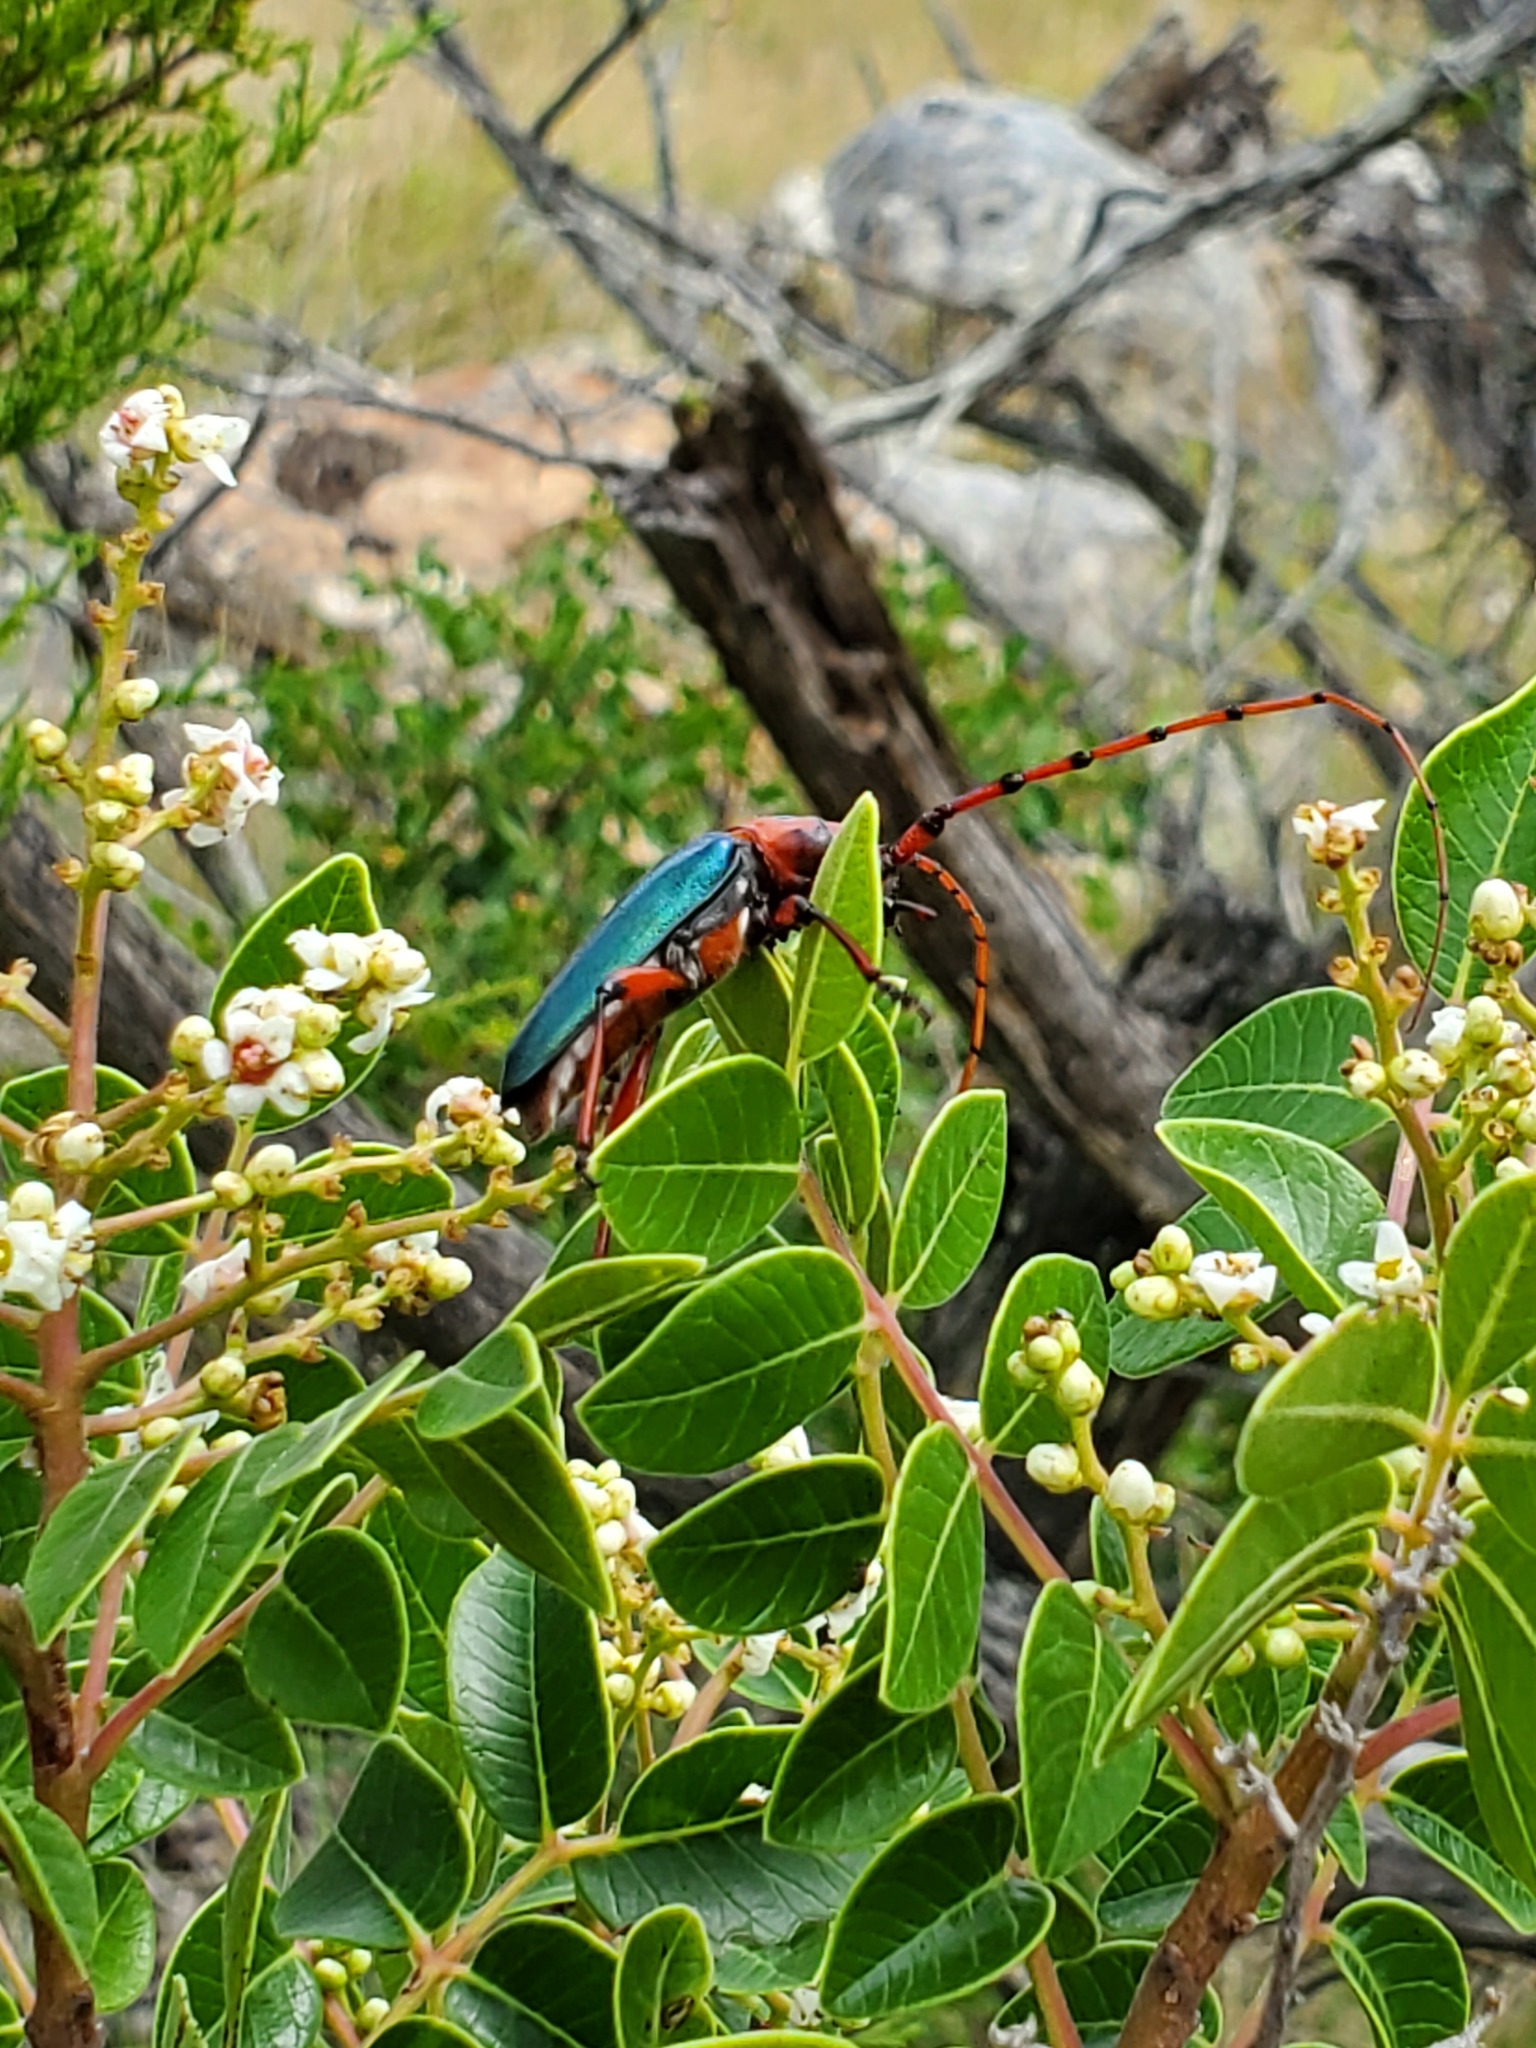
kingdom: Animalia
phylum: Arthropoda
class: Insecta
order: Coleoptera
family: Cerambycidae
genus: Stenaspis
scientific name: Stenaspis verticalis
